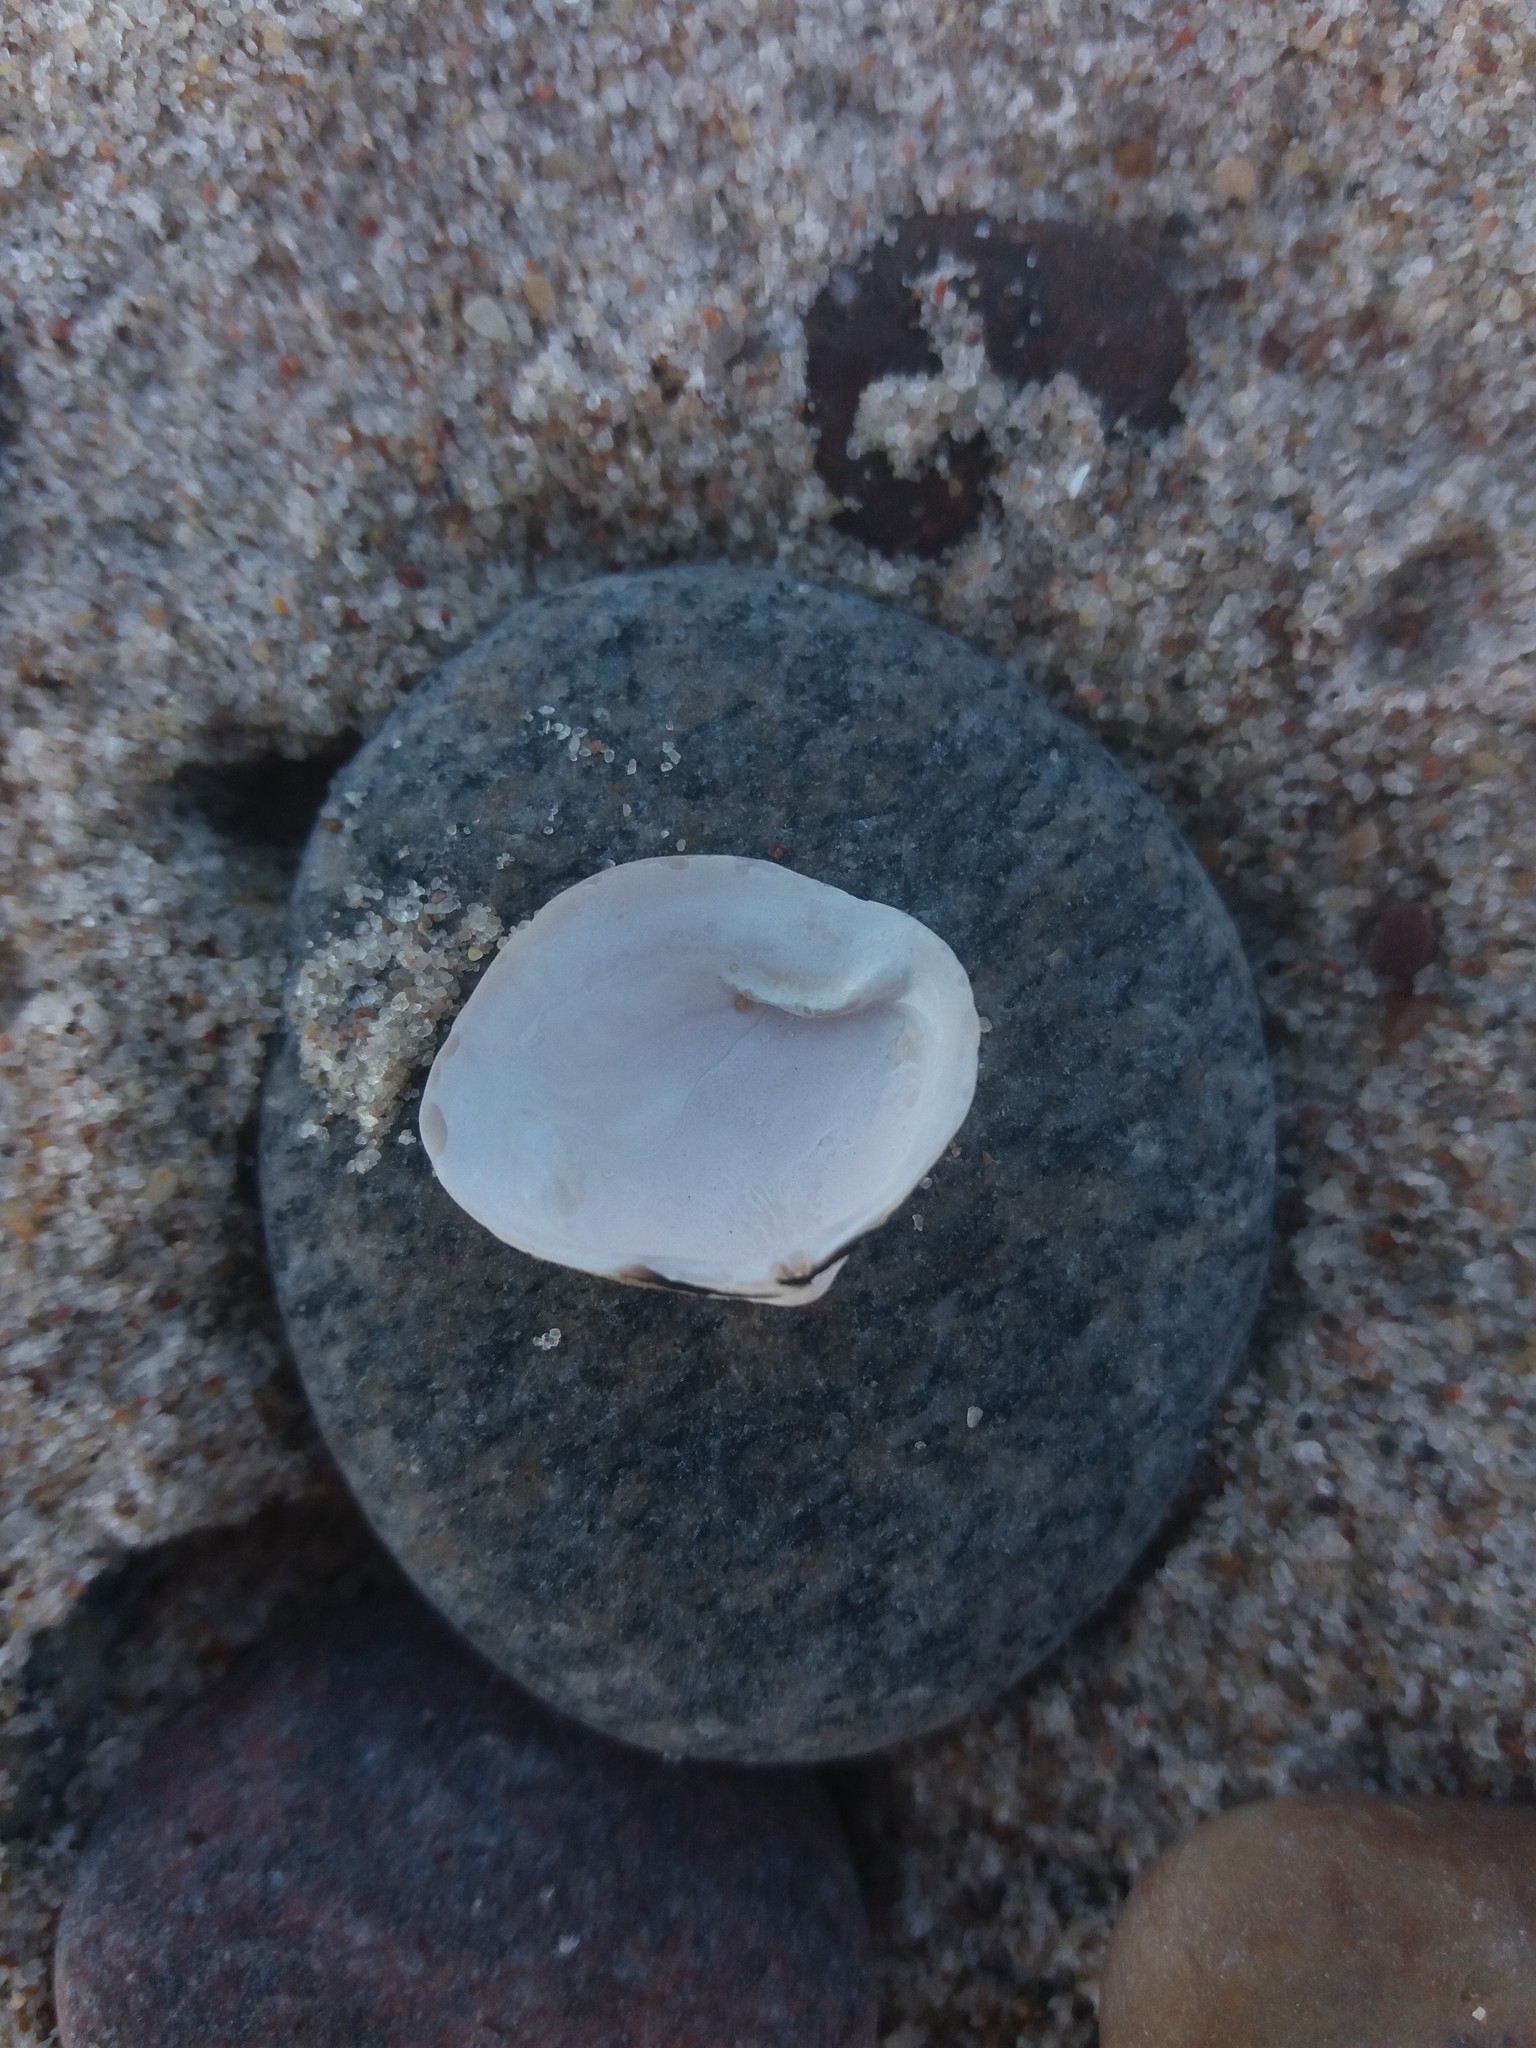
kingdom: Animalia
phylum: Mollusca
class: Bivalvia
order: Cardiida
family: Tellinidae
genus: Macoma
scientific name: Macoma balthica
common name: Baltic tellin
